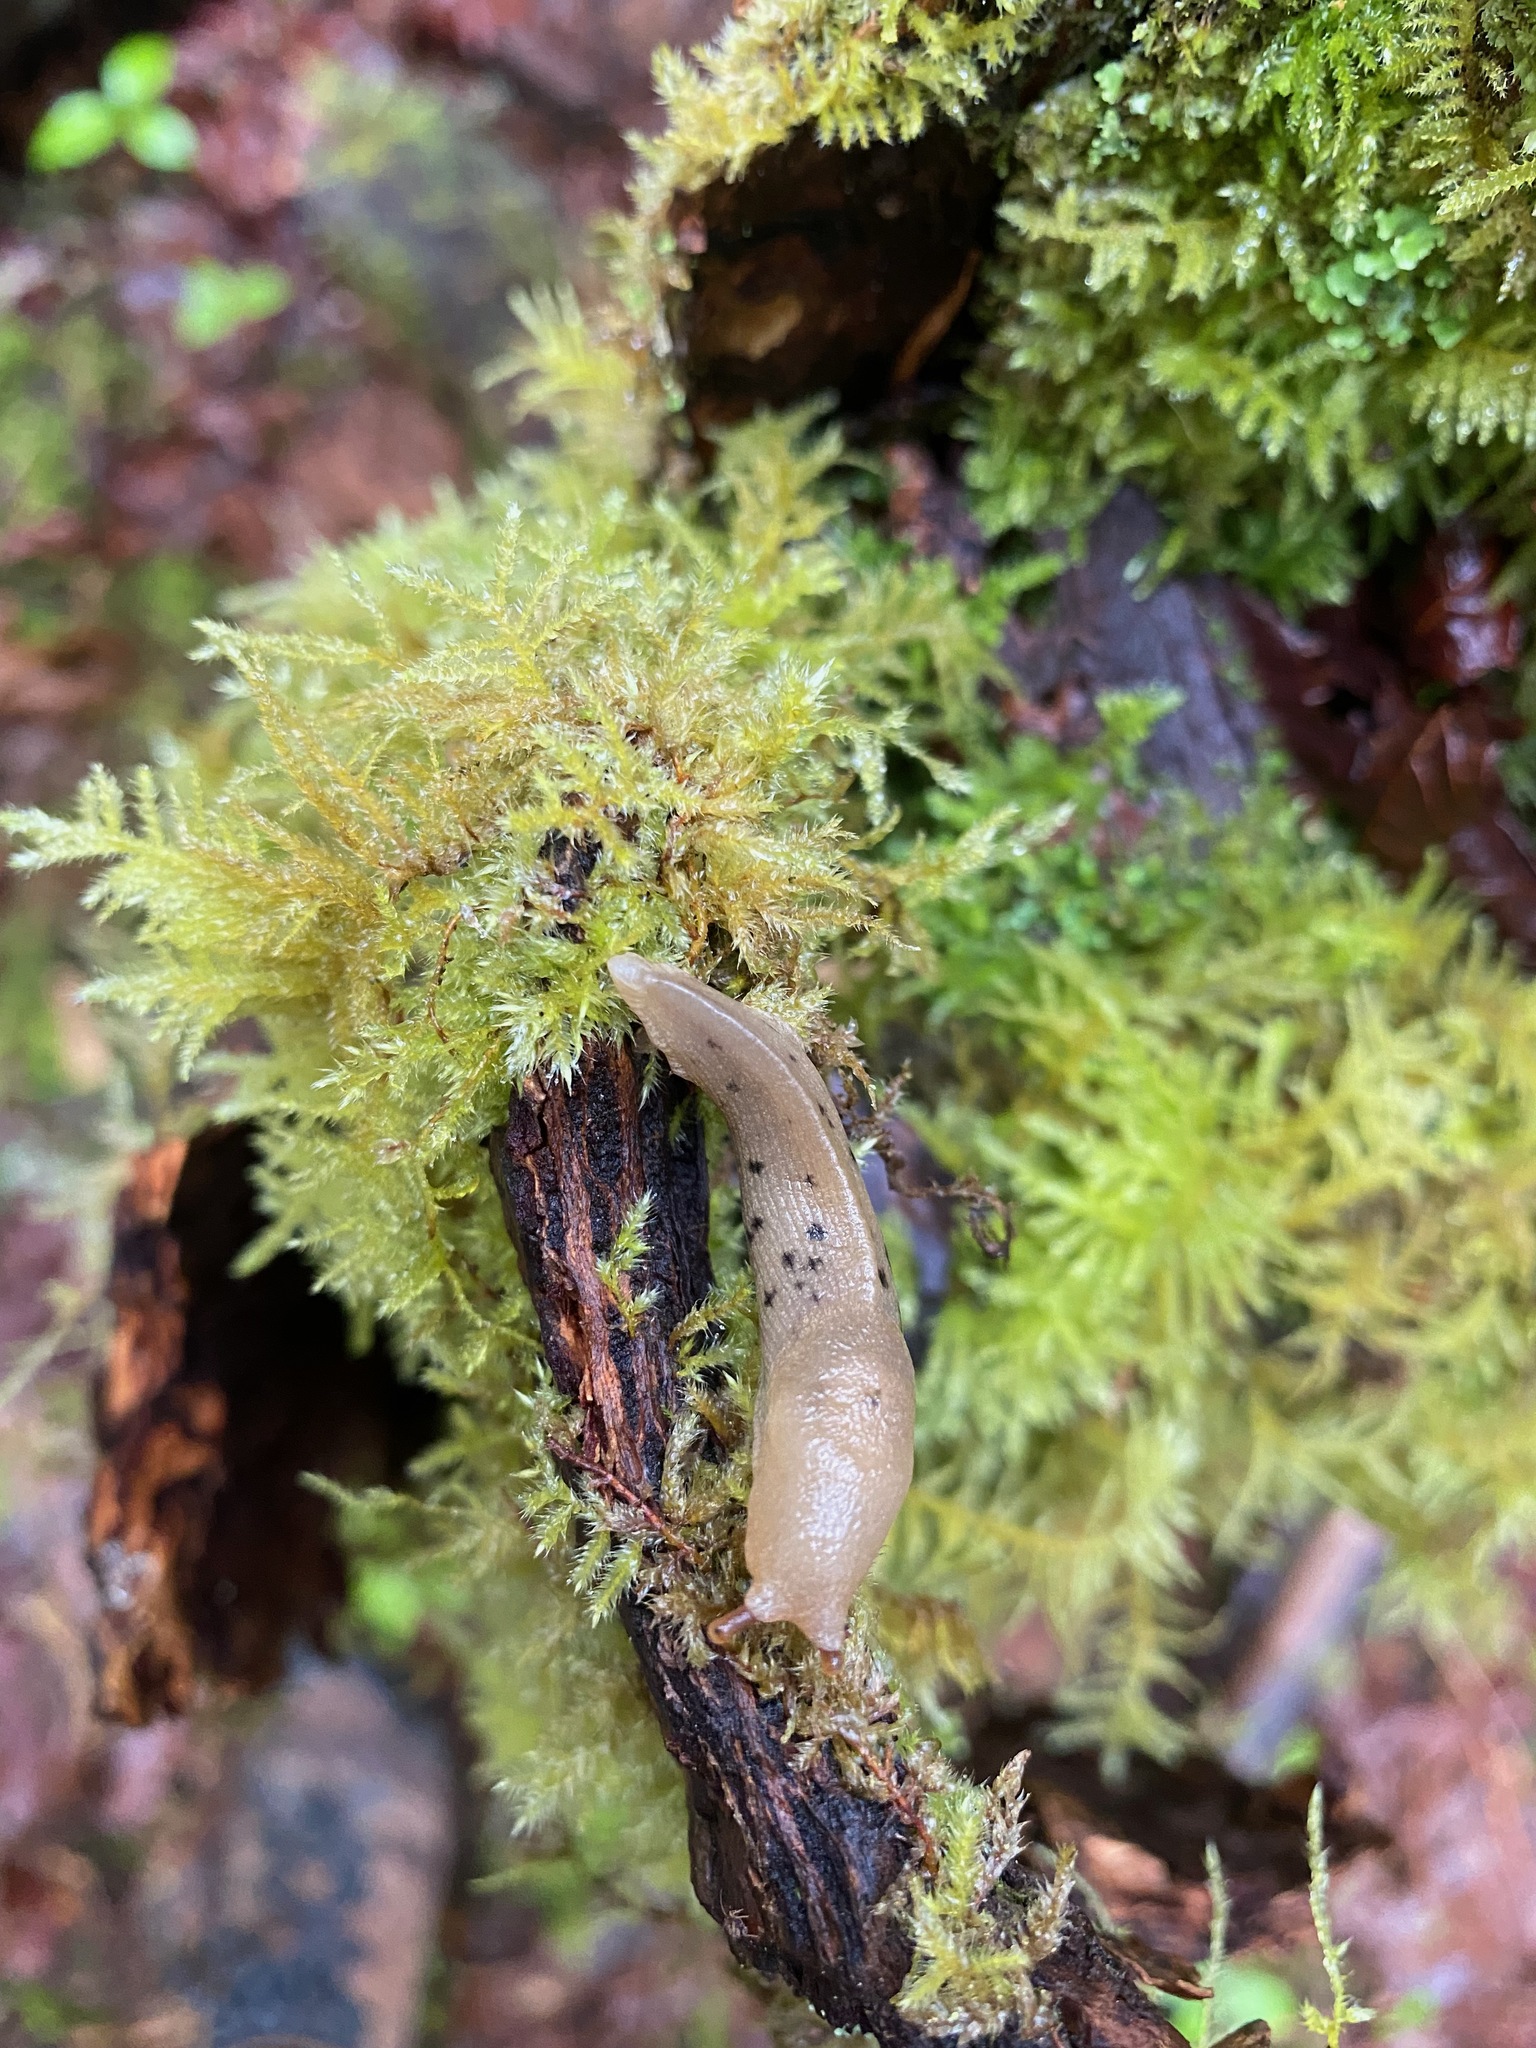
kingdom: Animalia
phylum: Mollusca
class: Gastropoda
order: Stylommatophora
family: Ariolimacidae
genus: Ariolimax
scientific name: Ariolimax columbianus
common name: Pacific banana slug
